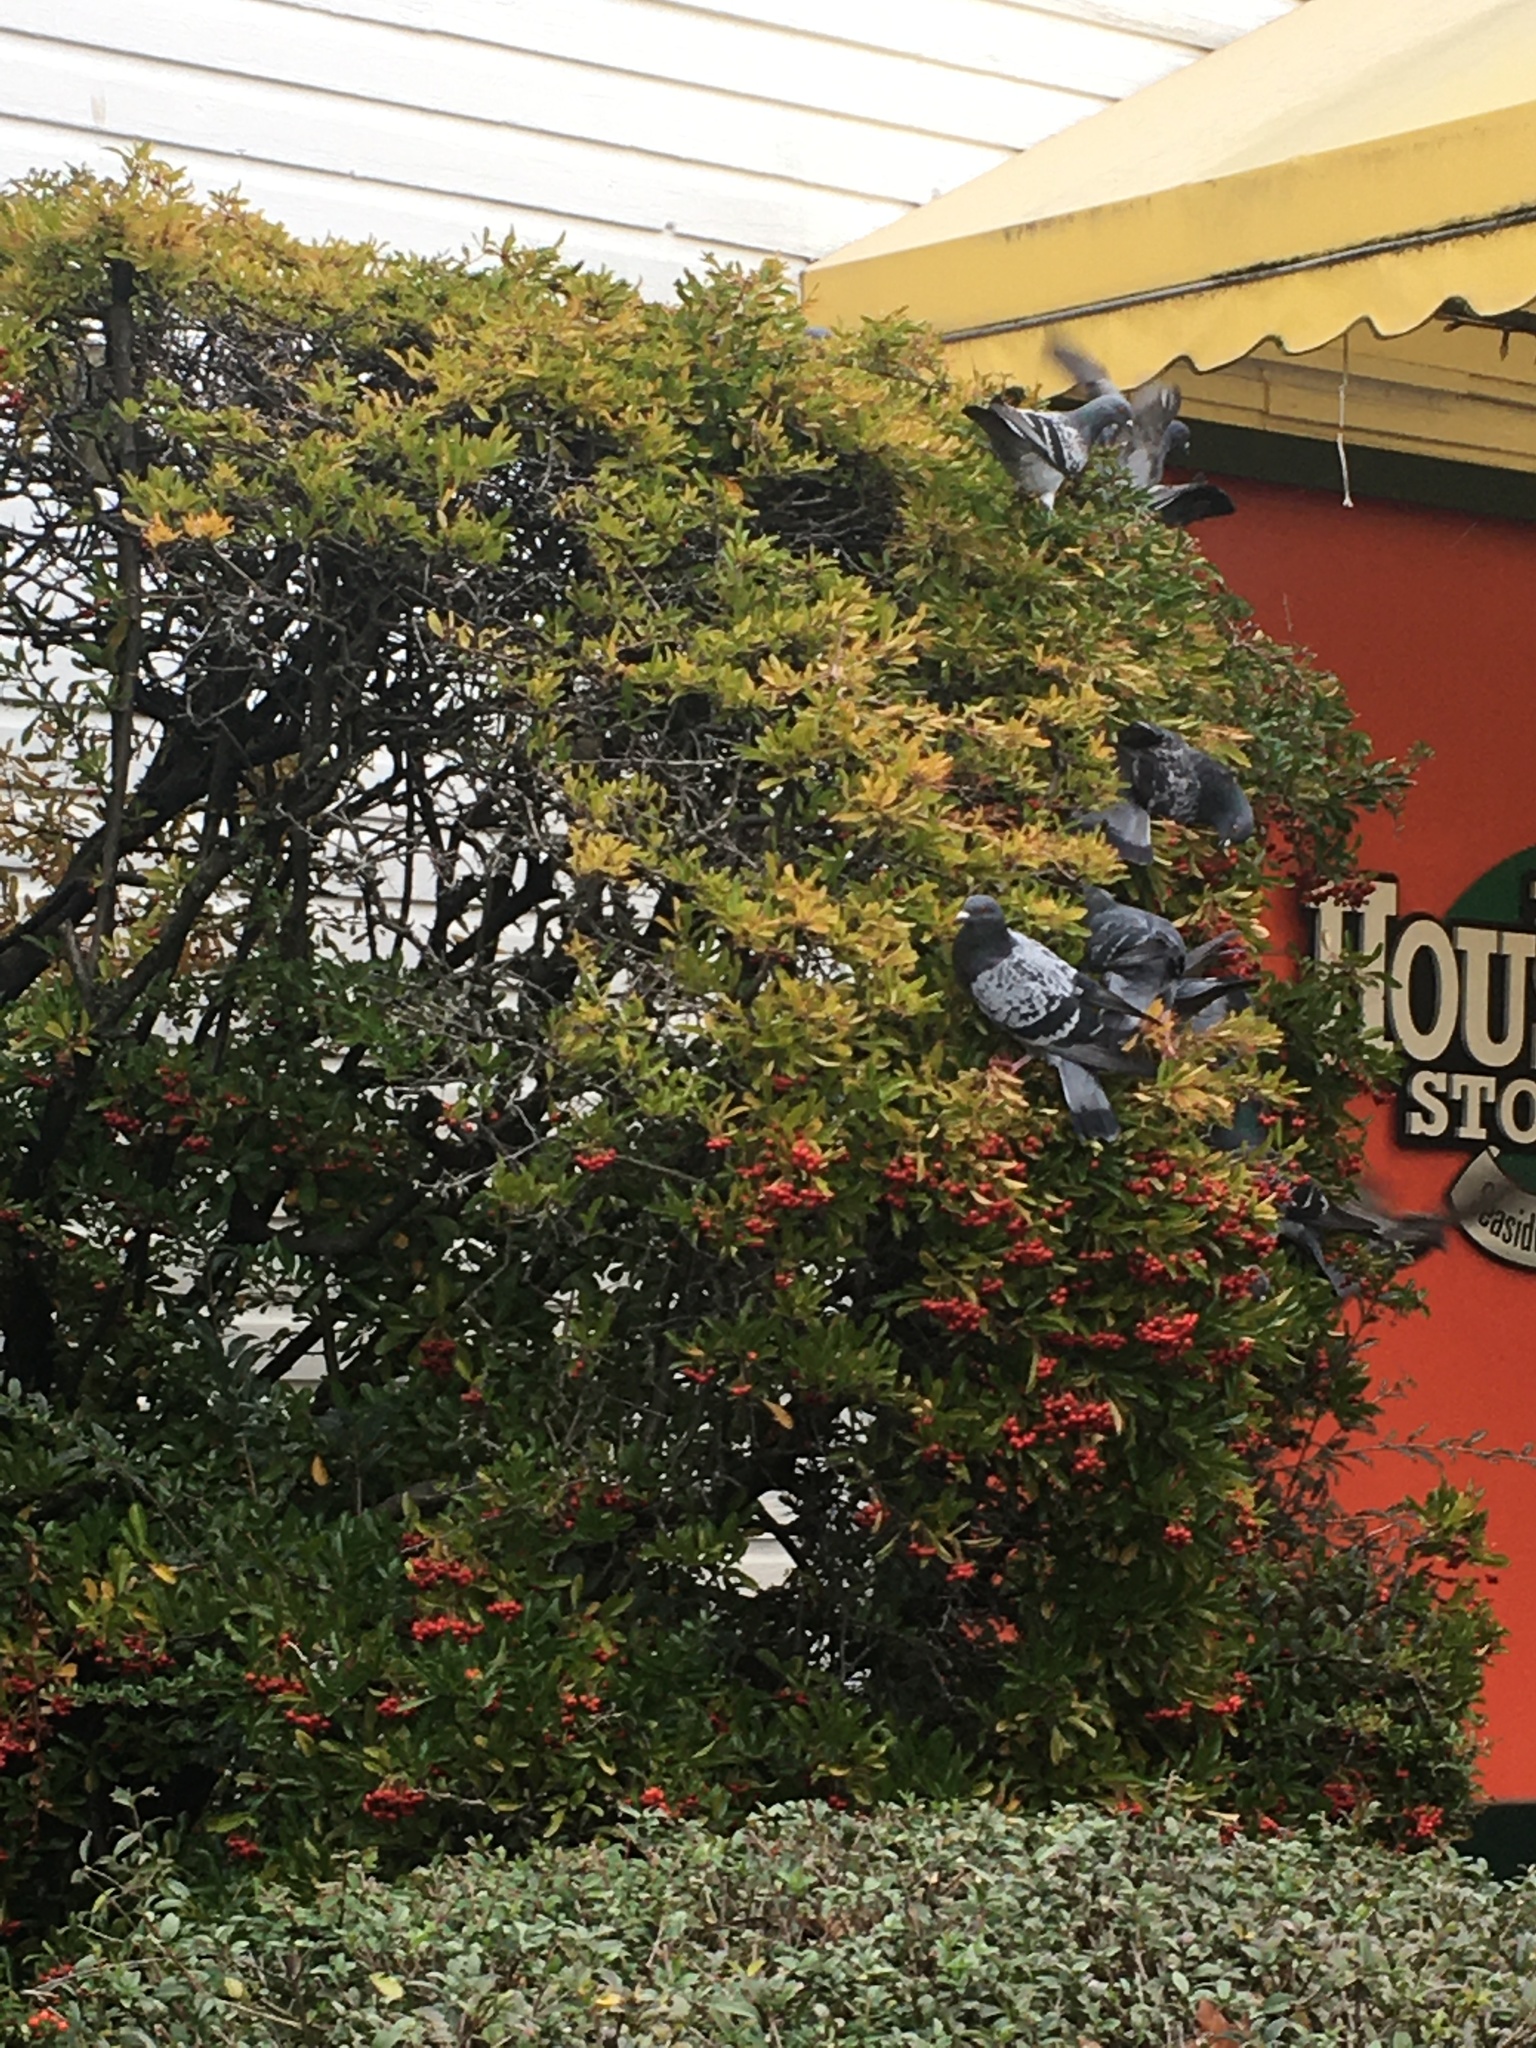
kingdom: Animalia
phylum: Chordata
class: Aves
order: Columbiformes
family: Columbidae
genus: Columba
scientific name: Columba livia
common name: Rock pigeon
